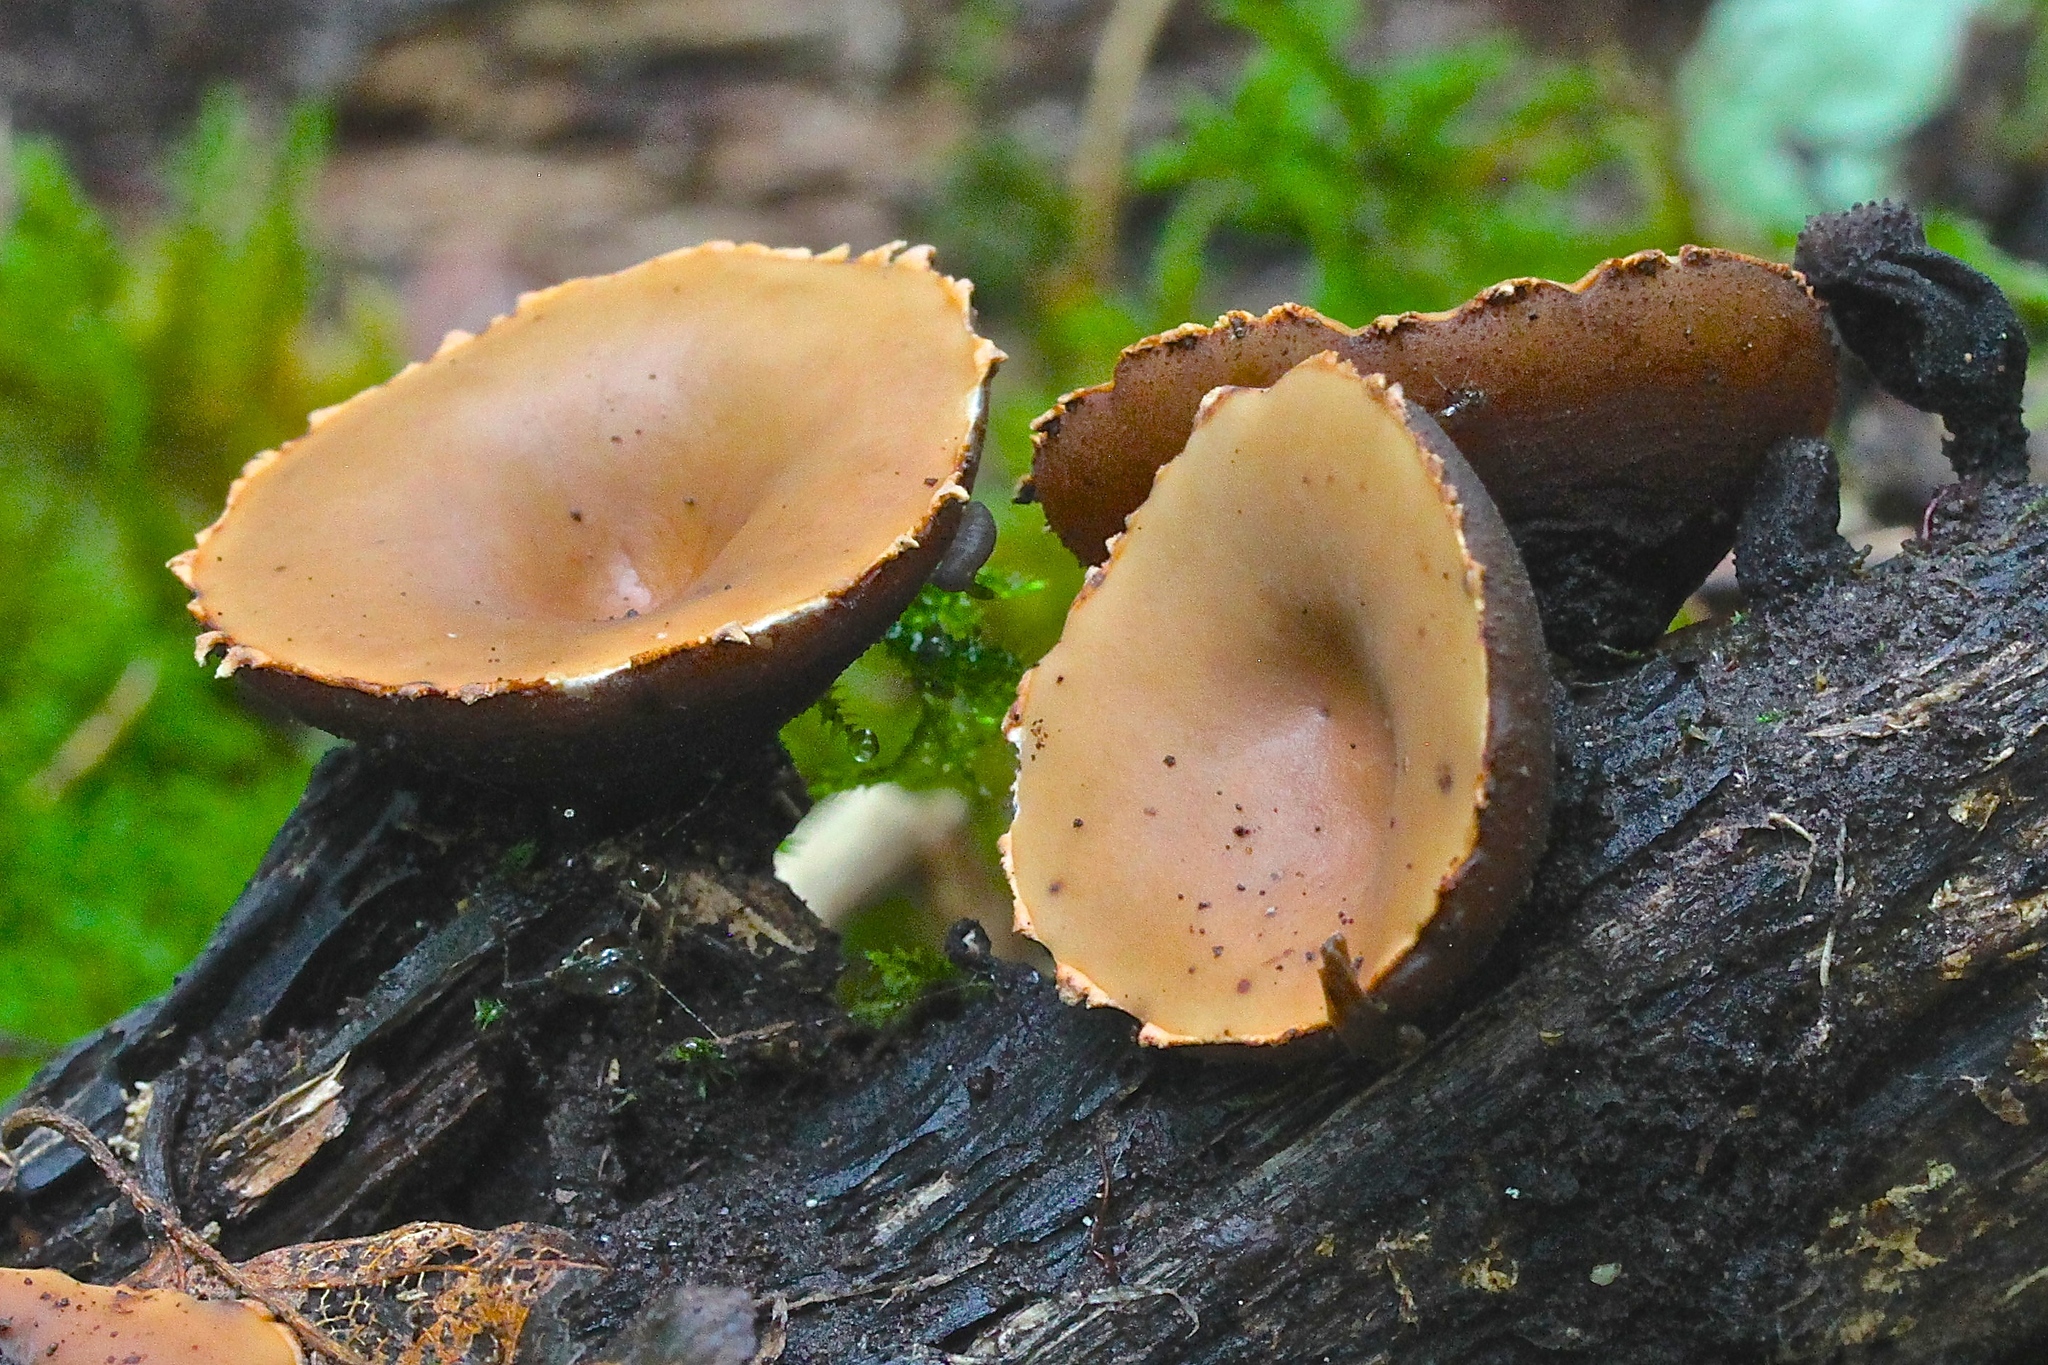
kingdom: Fungi
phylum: Ascomycota
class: Pezizomycetes
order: Pezizales
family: Sarcosomataceae
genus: Galiella
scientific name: Galiella rufa
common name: Hairy rubber cup
